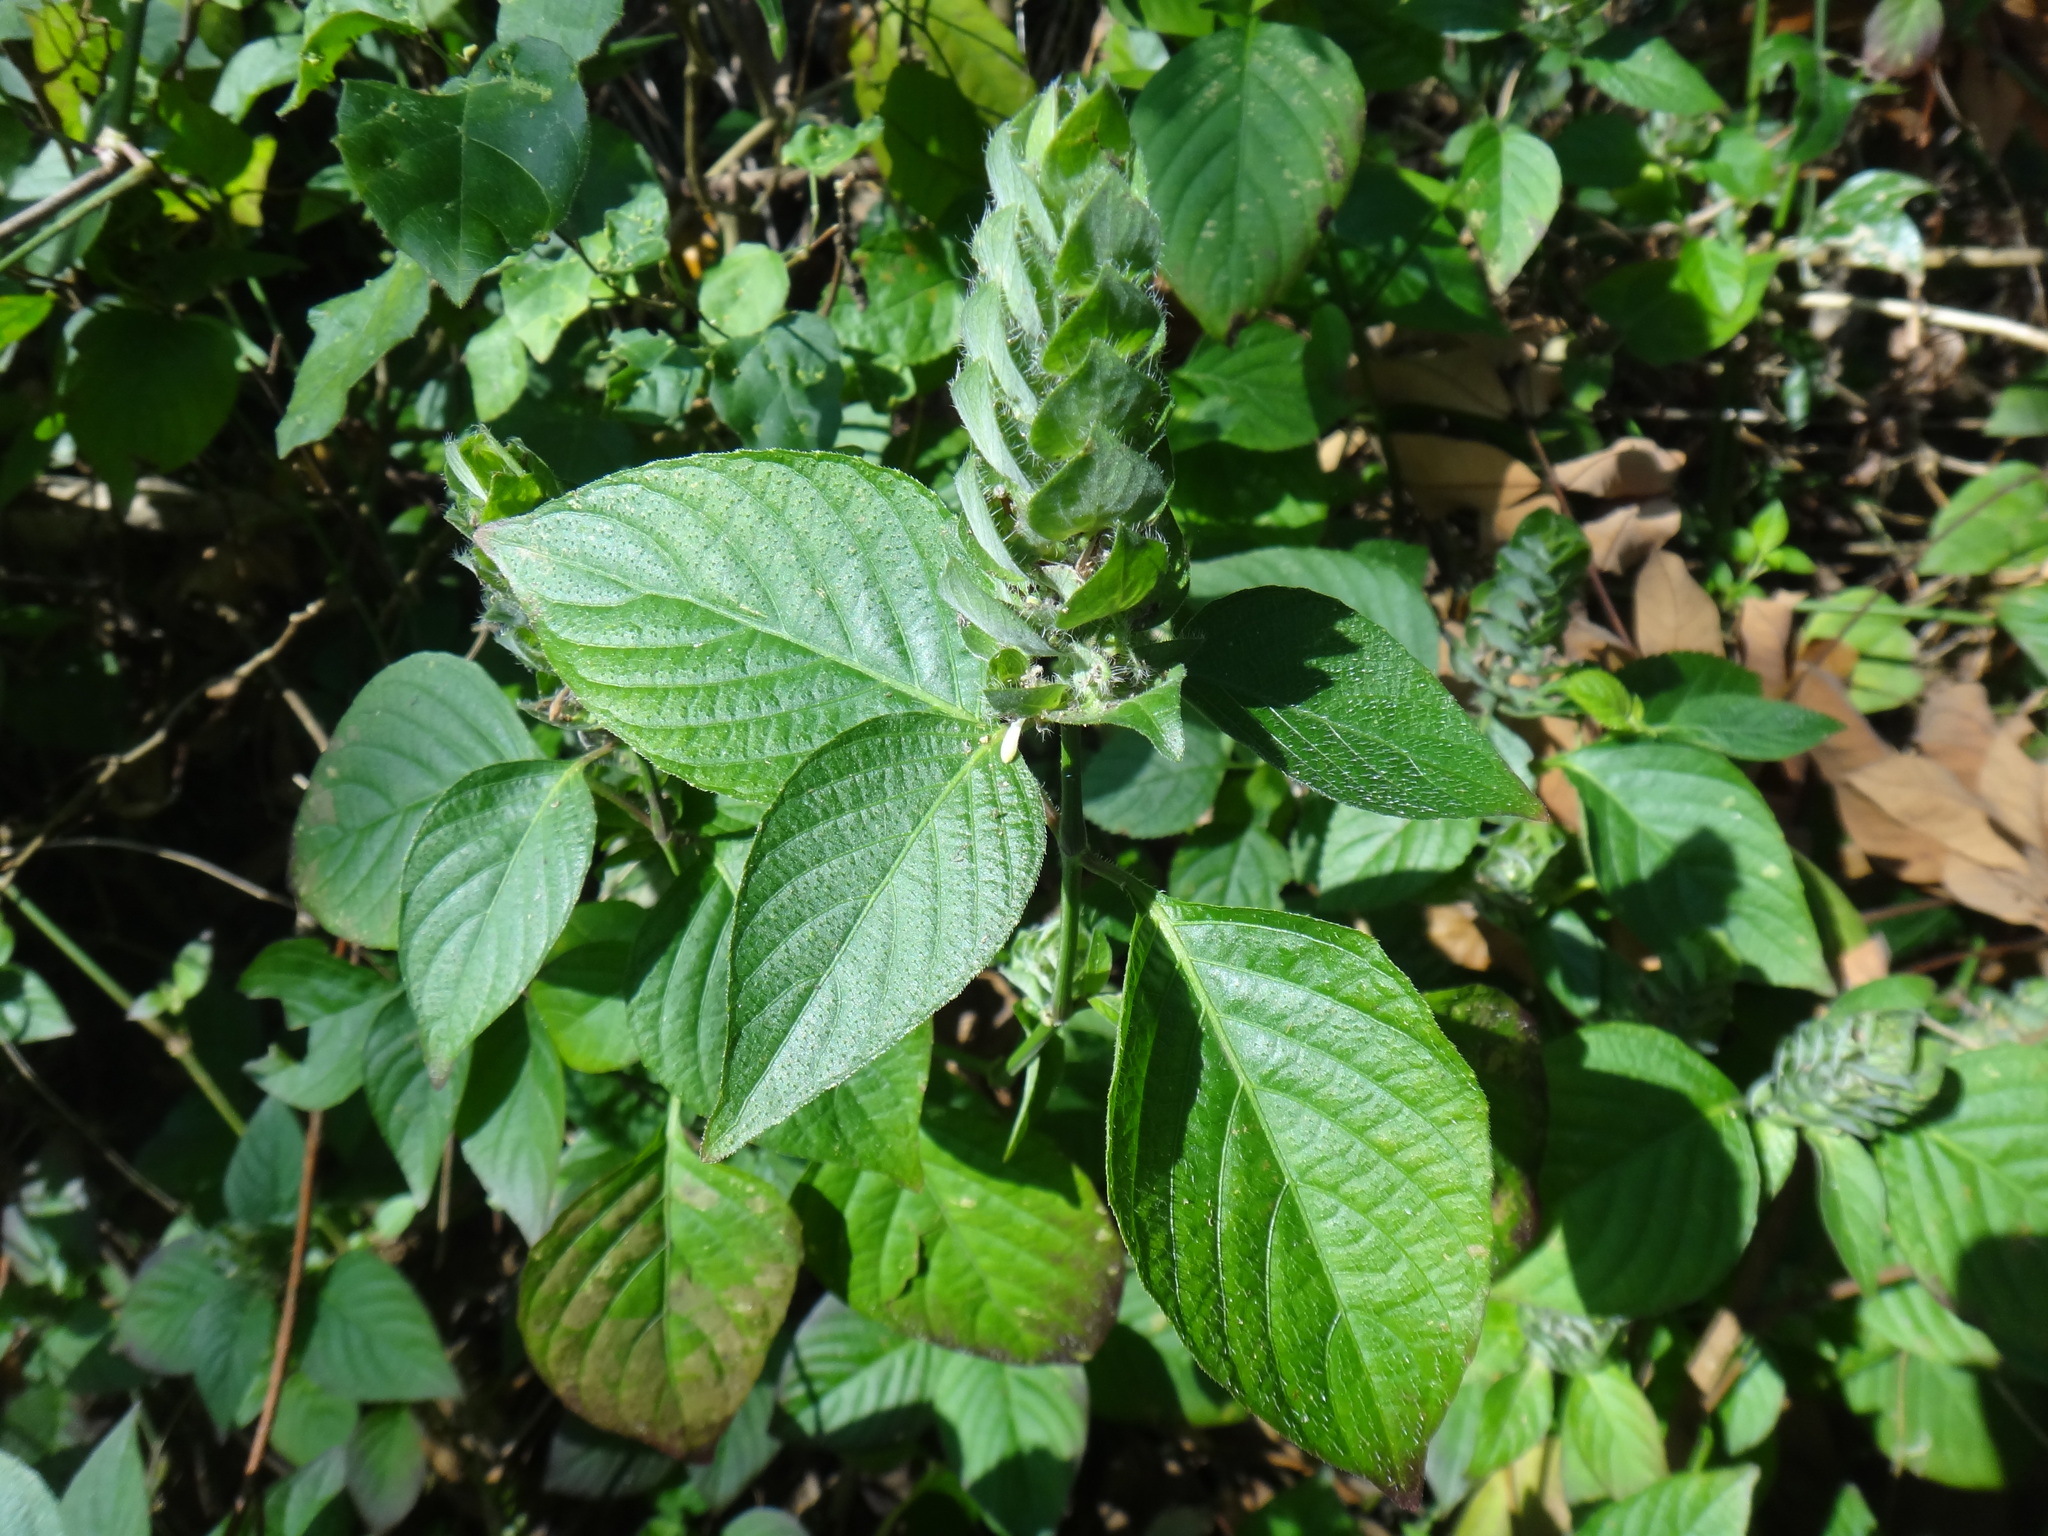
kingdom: Plantae
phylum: Tracheophyta
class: Magnoliopsida
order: Lamiales
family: Acanthaceae
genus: Ruellia
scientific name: Ruellia blechum
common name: Browne's blechum
